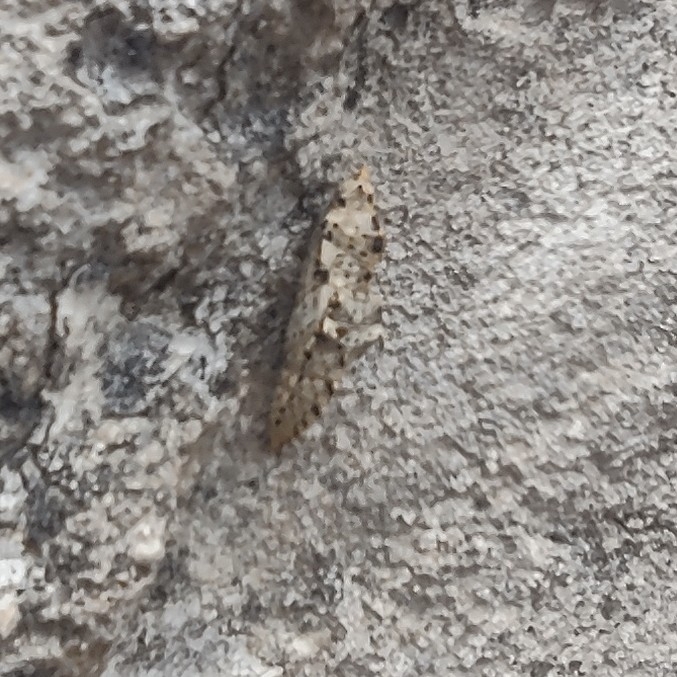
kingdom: Animalia
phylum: Arthropoda
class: Insecta
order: Lepidoptera
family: Pieridae
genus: Pieris
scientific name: Pieris brassicae
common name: Large white
